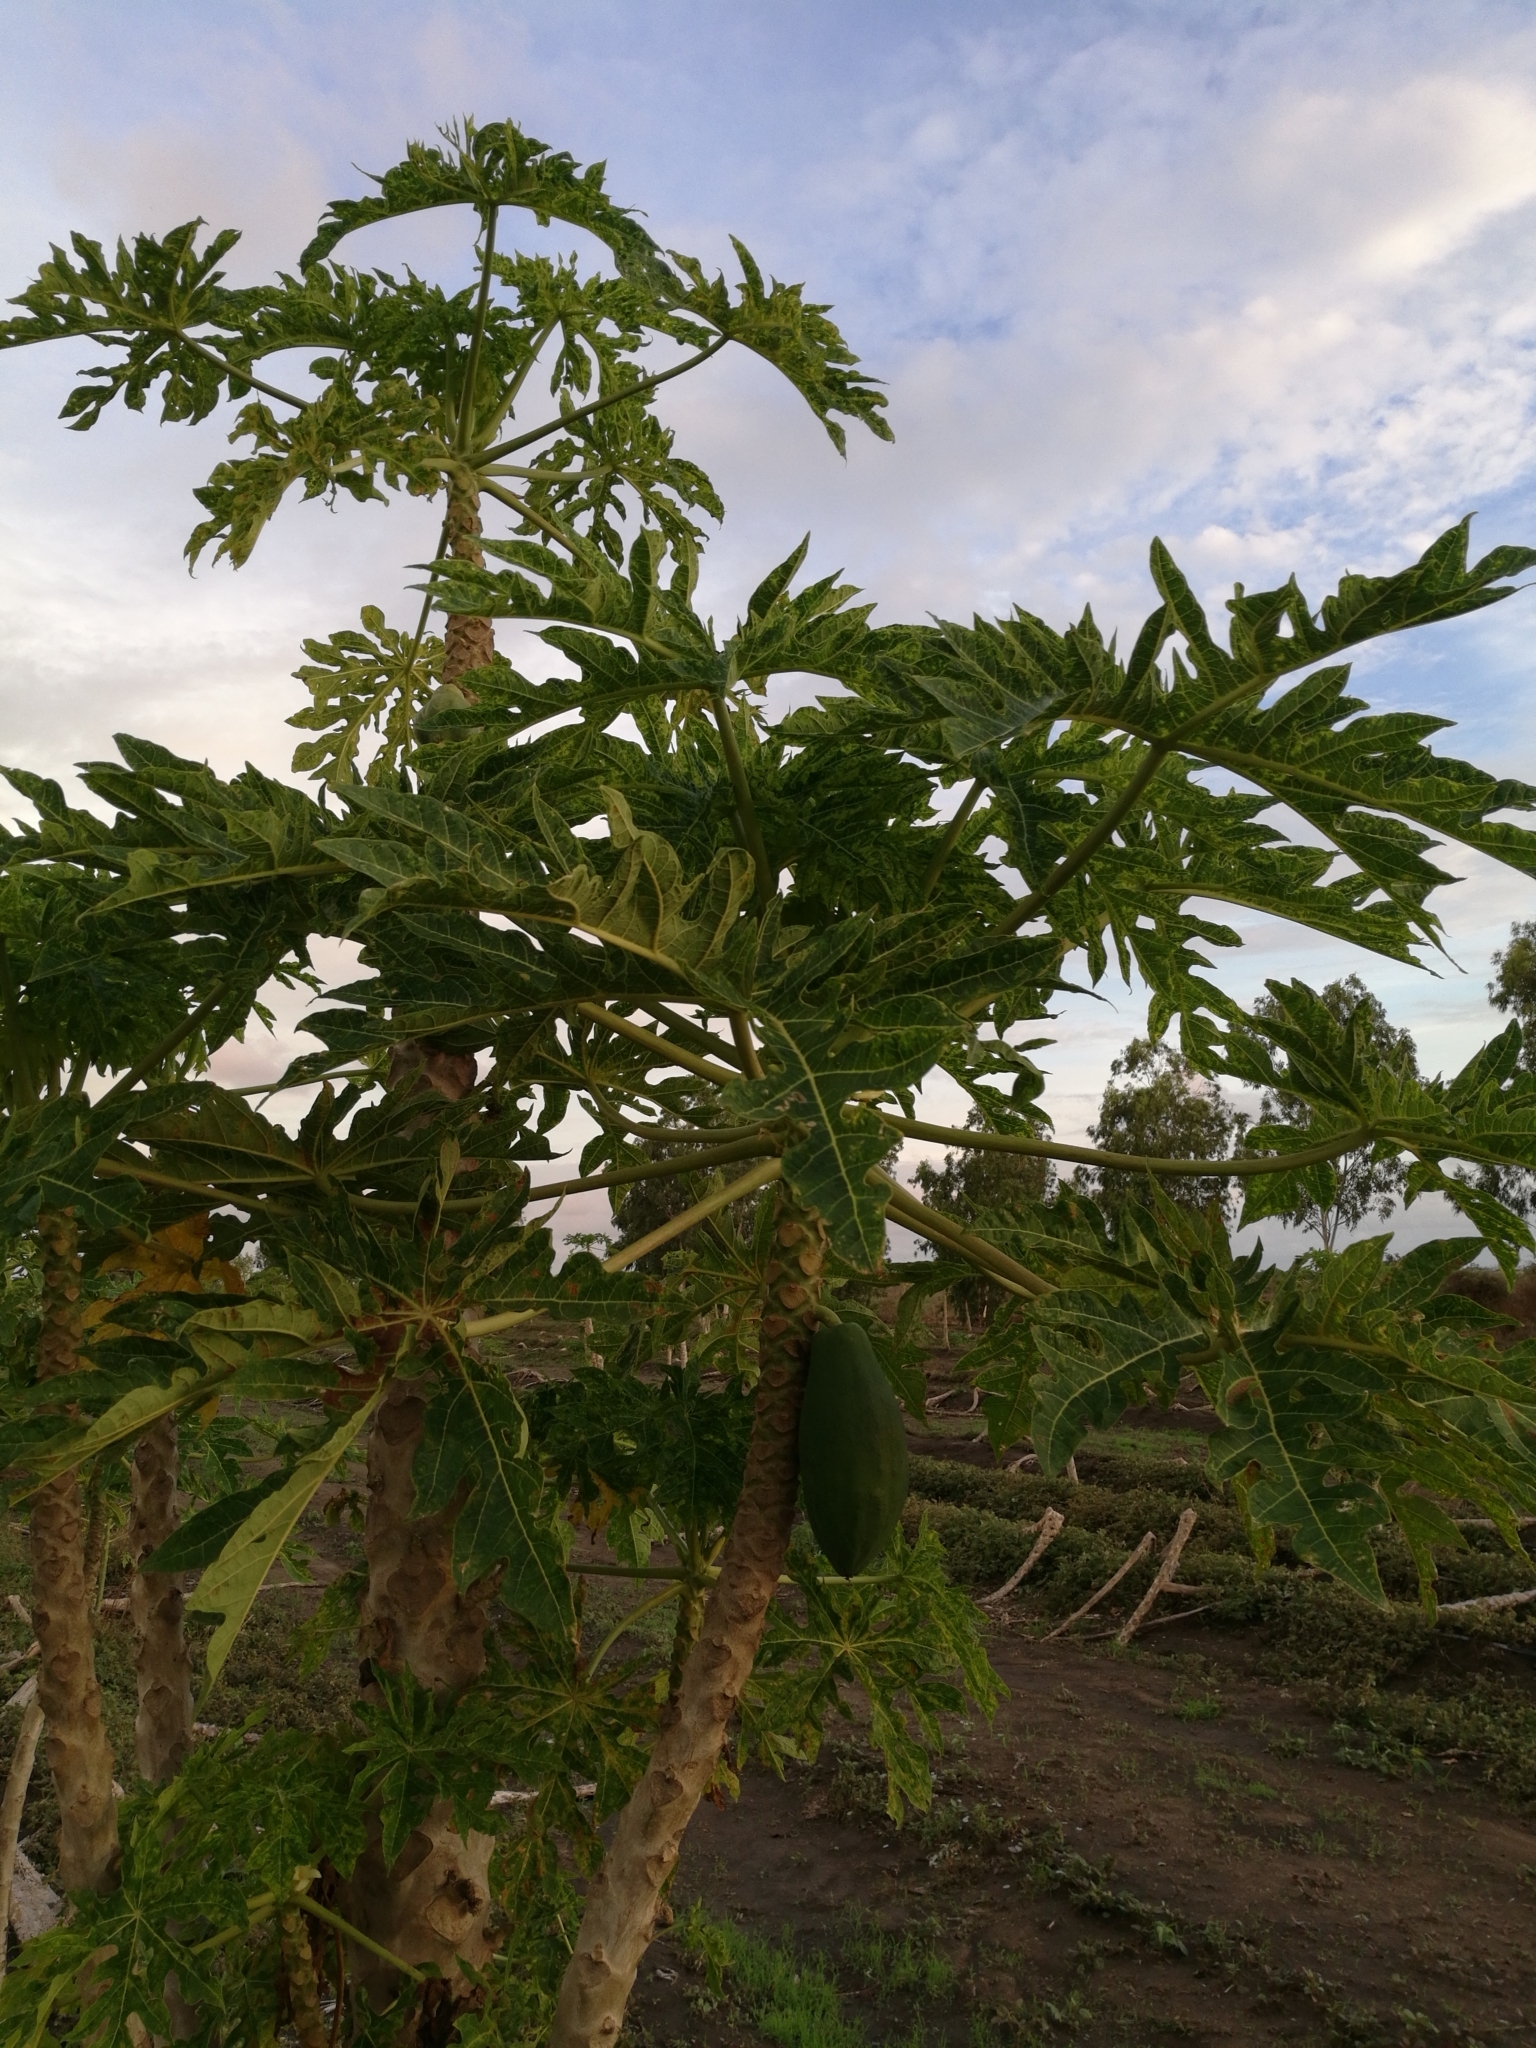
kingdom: Plantae
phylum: Tracheophyta
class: Magnoliopsida
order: Brassicales
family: Caricaceae
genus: Carica
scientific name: Carica papaya
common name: Papaya
